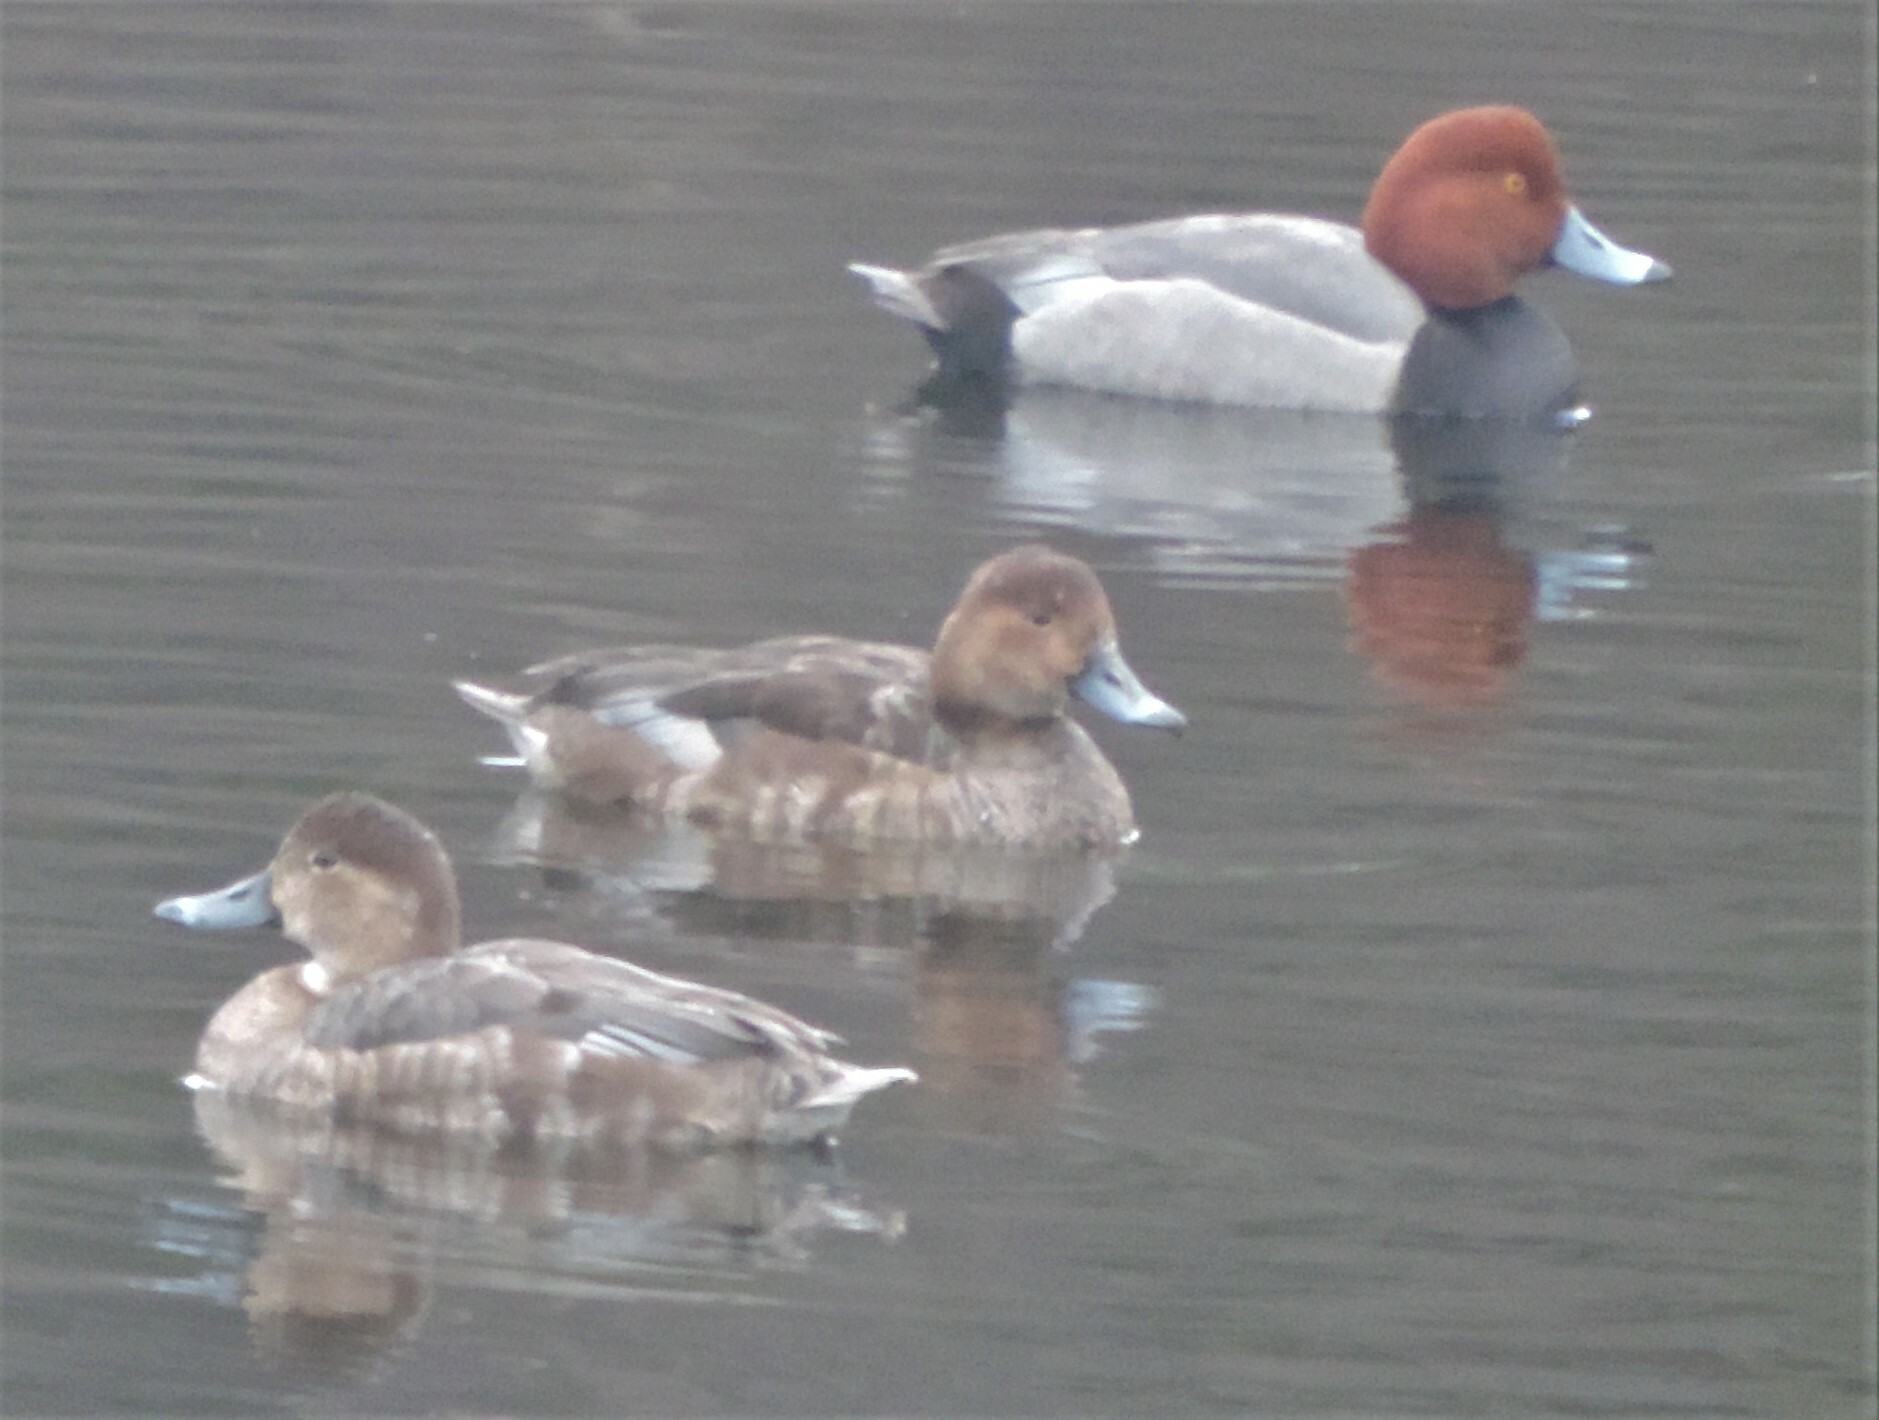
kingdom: Animalia
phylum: Chordata
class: Aves
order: Anseriformes
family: Anatidae
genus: Aythya
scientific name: Aythya americana
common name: Redhead
